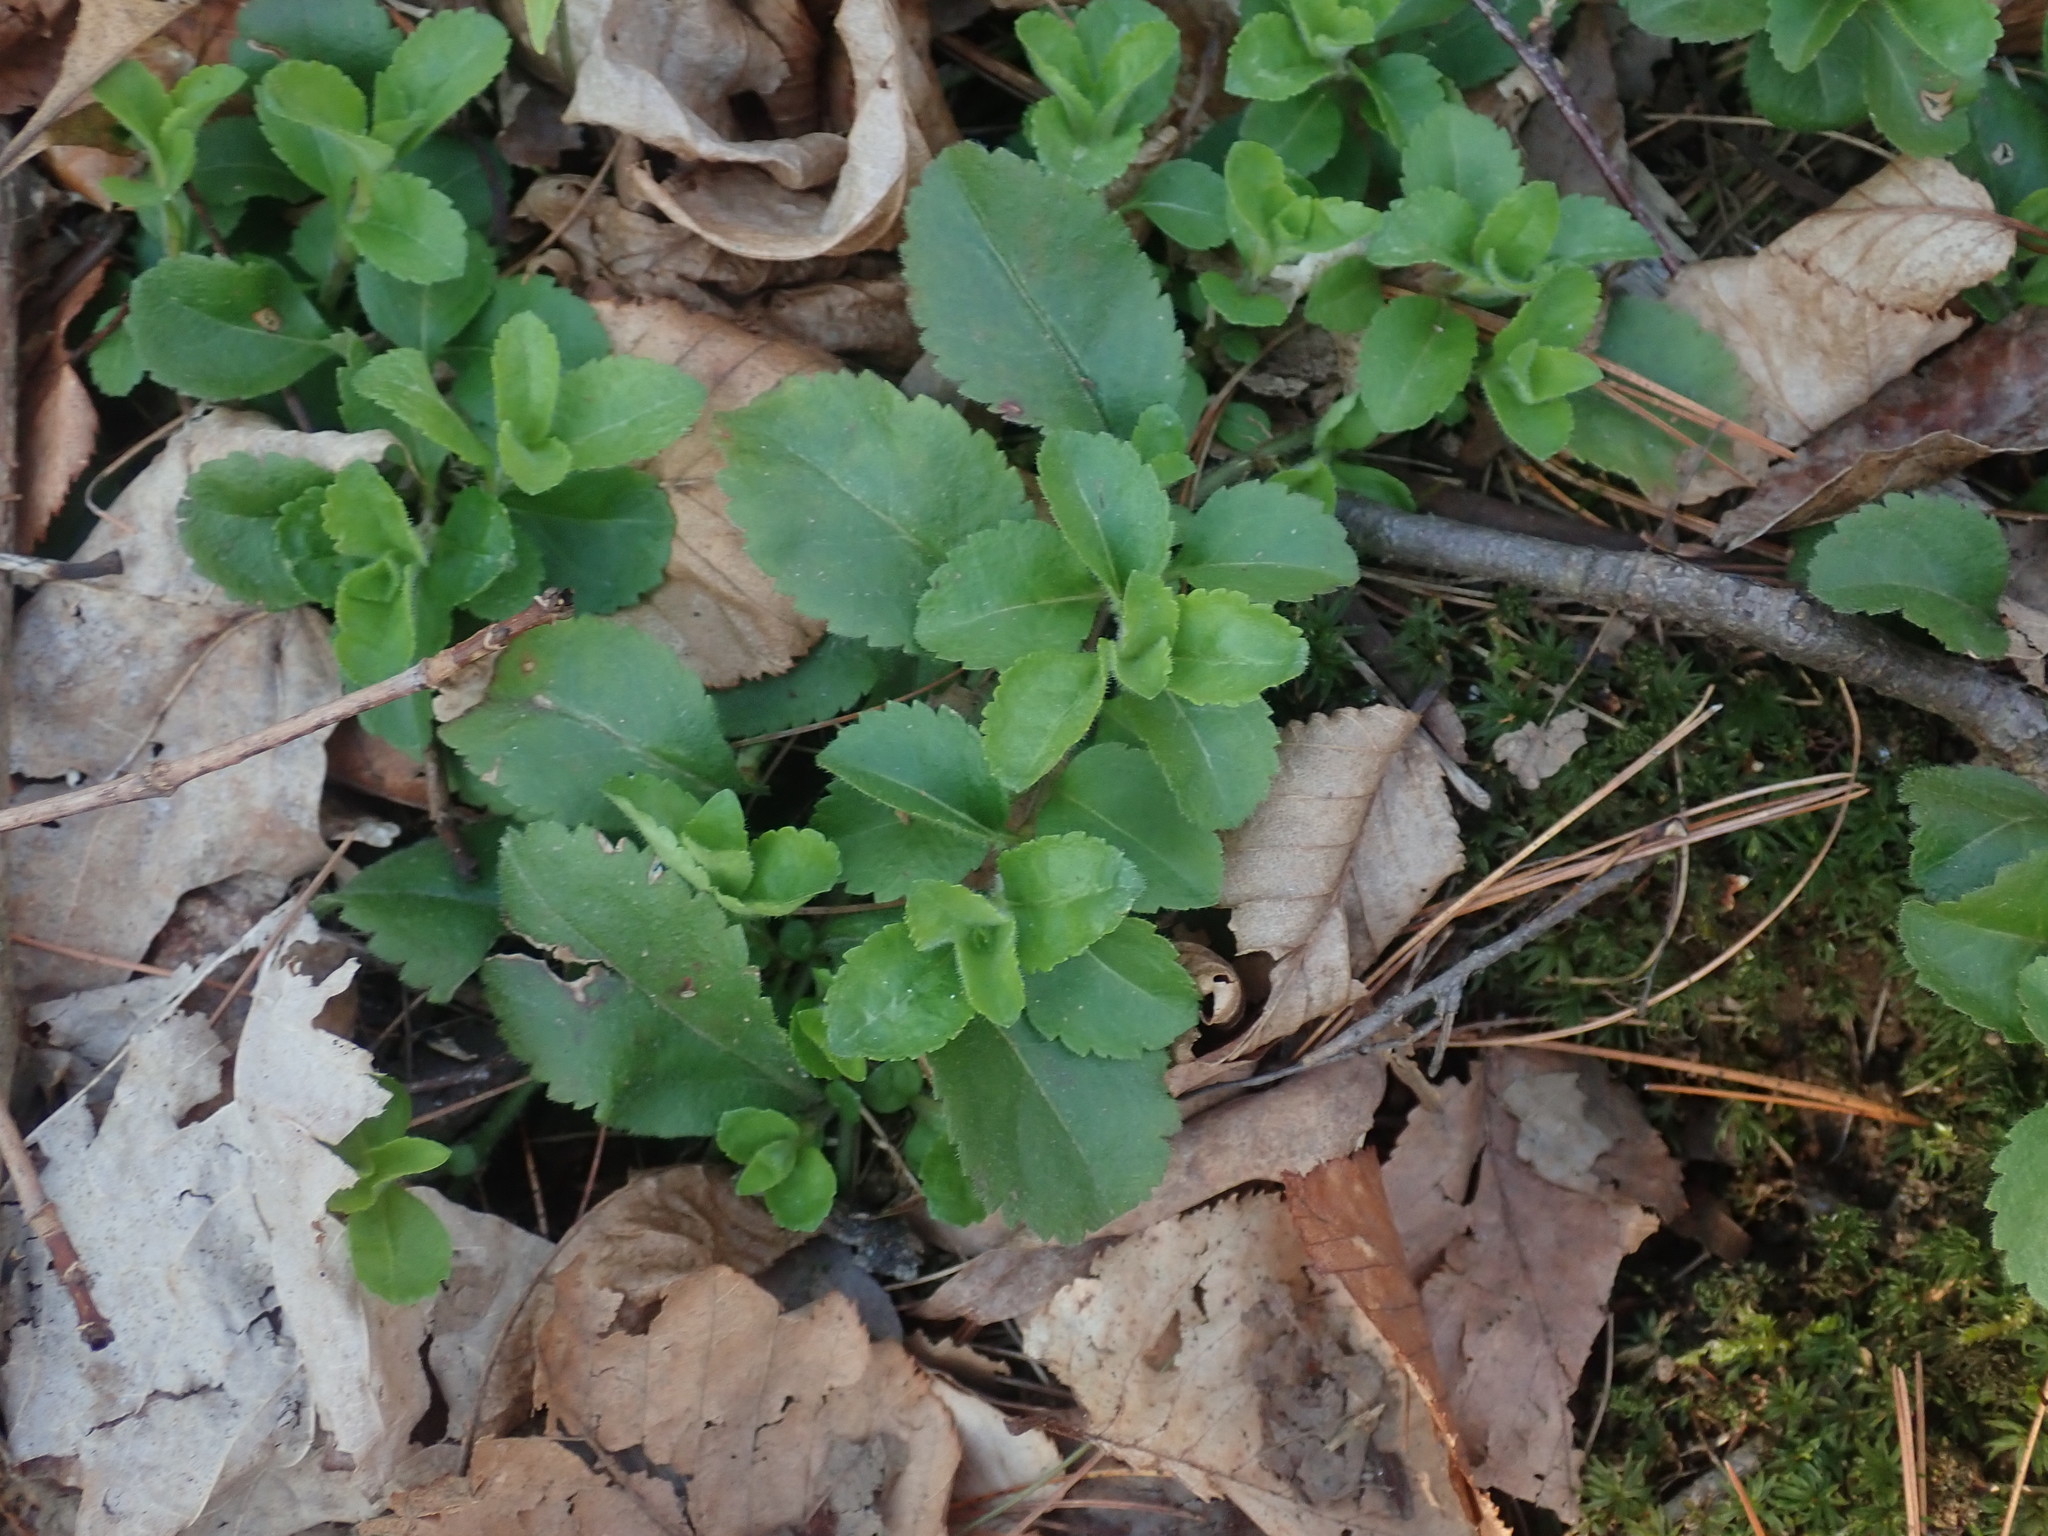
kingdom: Plantae
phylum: Tracheophyta
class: Magnoliopsida
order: Lamiales
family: Plantaginaceae
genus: Veronica
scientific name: Veronica officinalis
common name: Common speedwell
